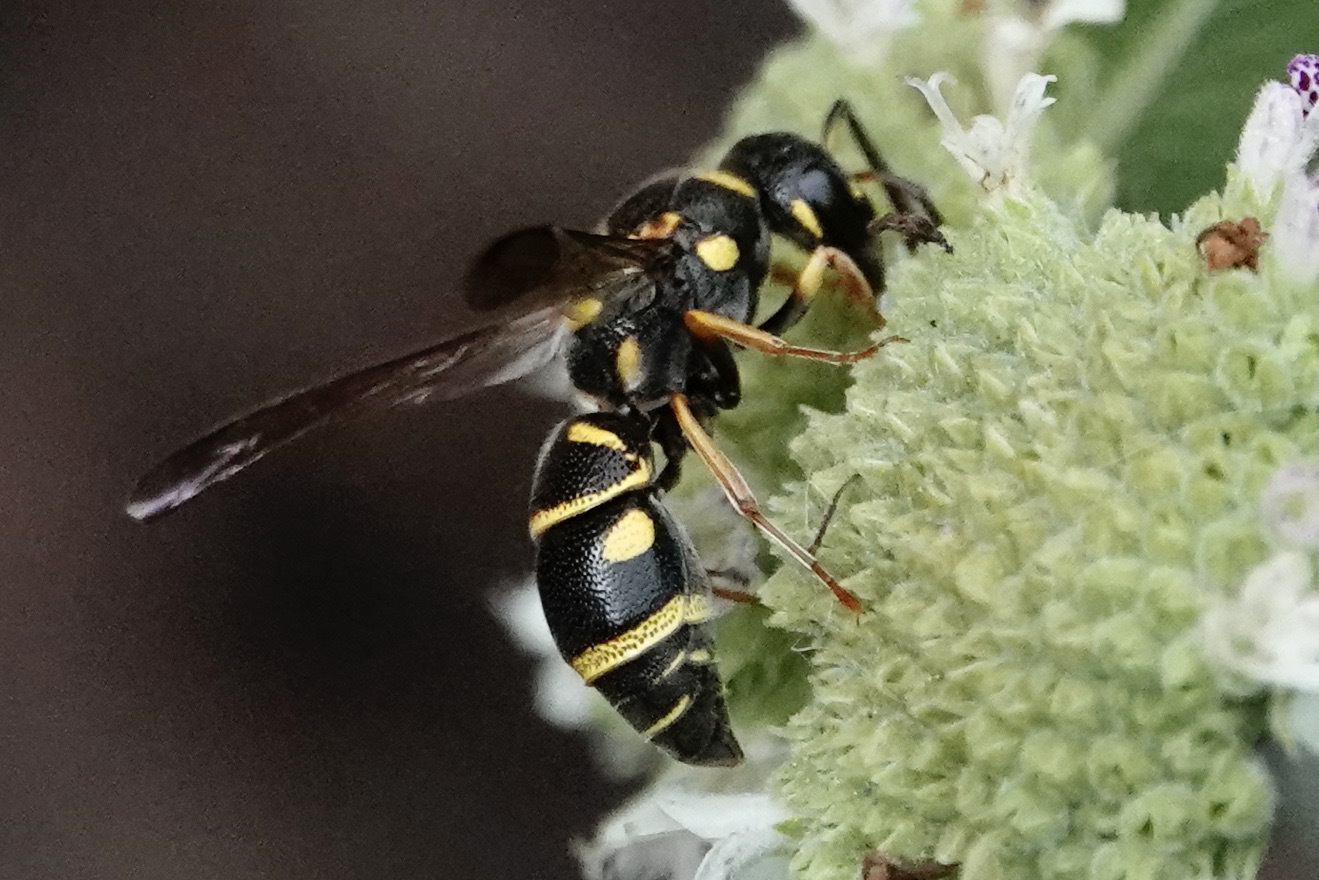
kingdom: Animalia
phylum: Arthropoda
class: Insecta
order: Hymenoptera
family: Eumenidae
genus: Parancistrocerus
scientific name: Parancistrocerus salcularis
